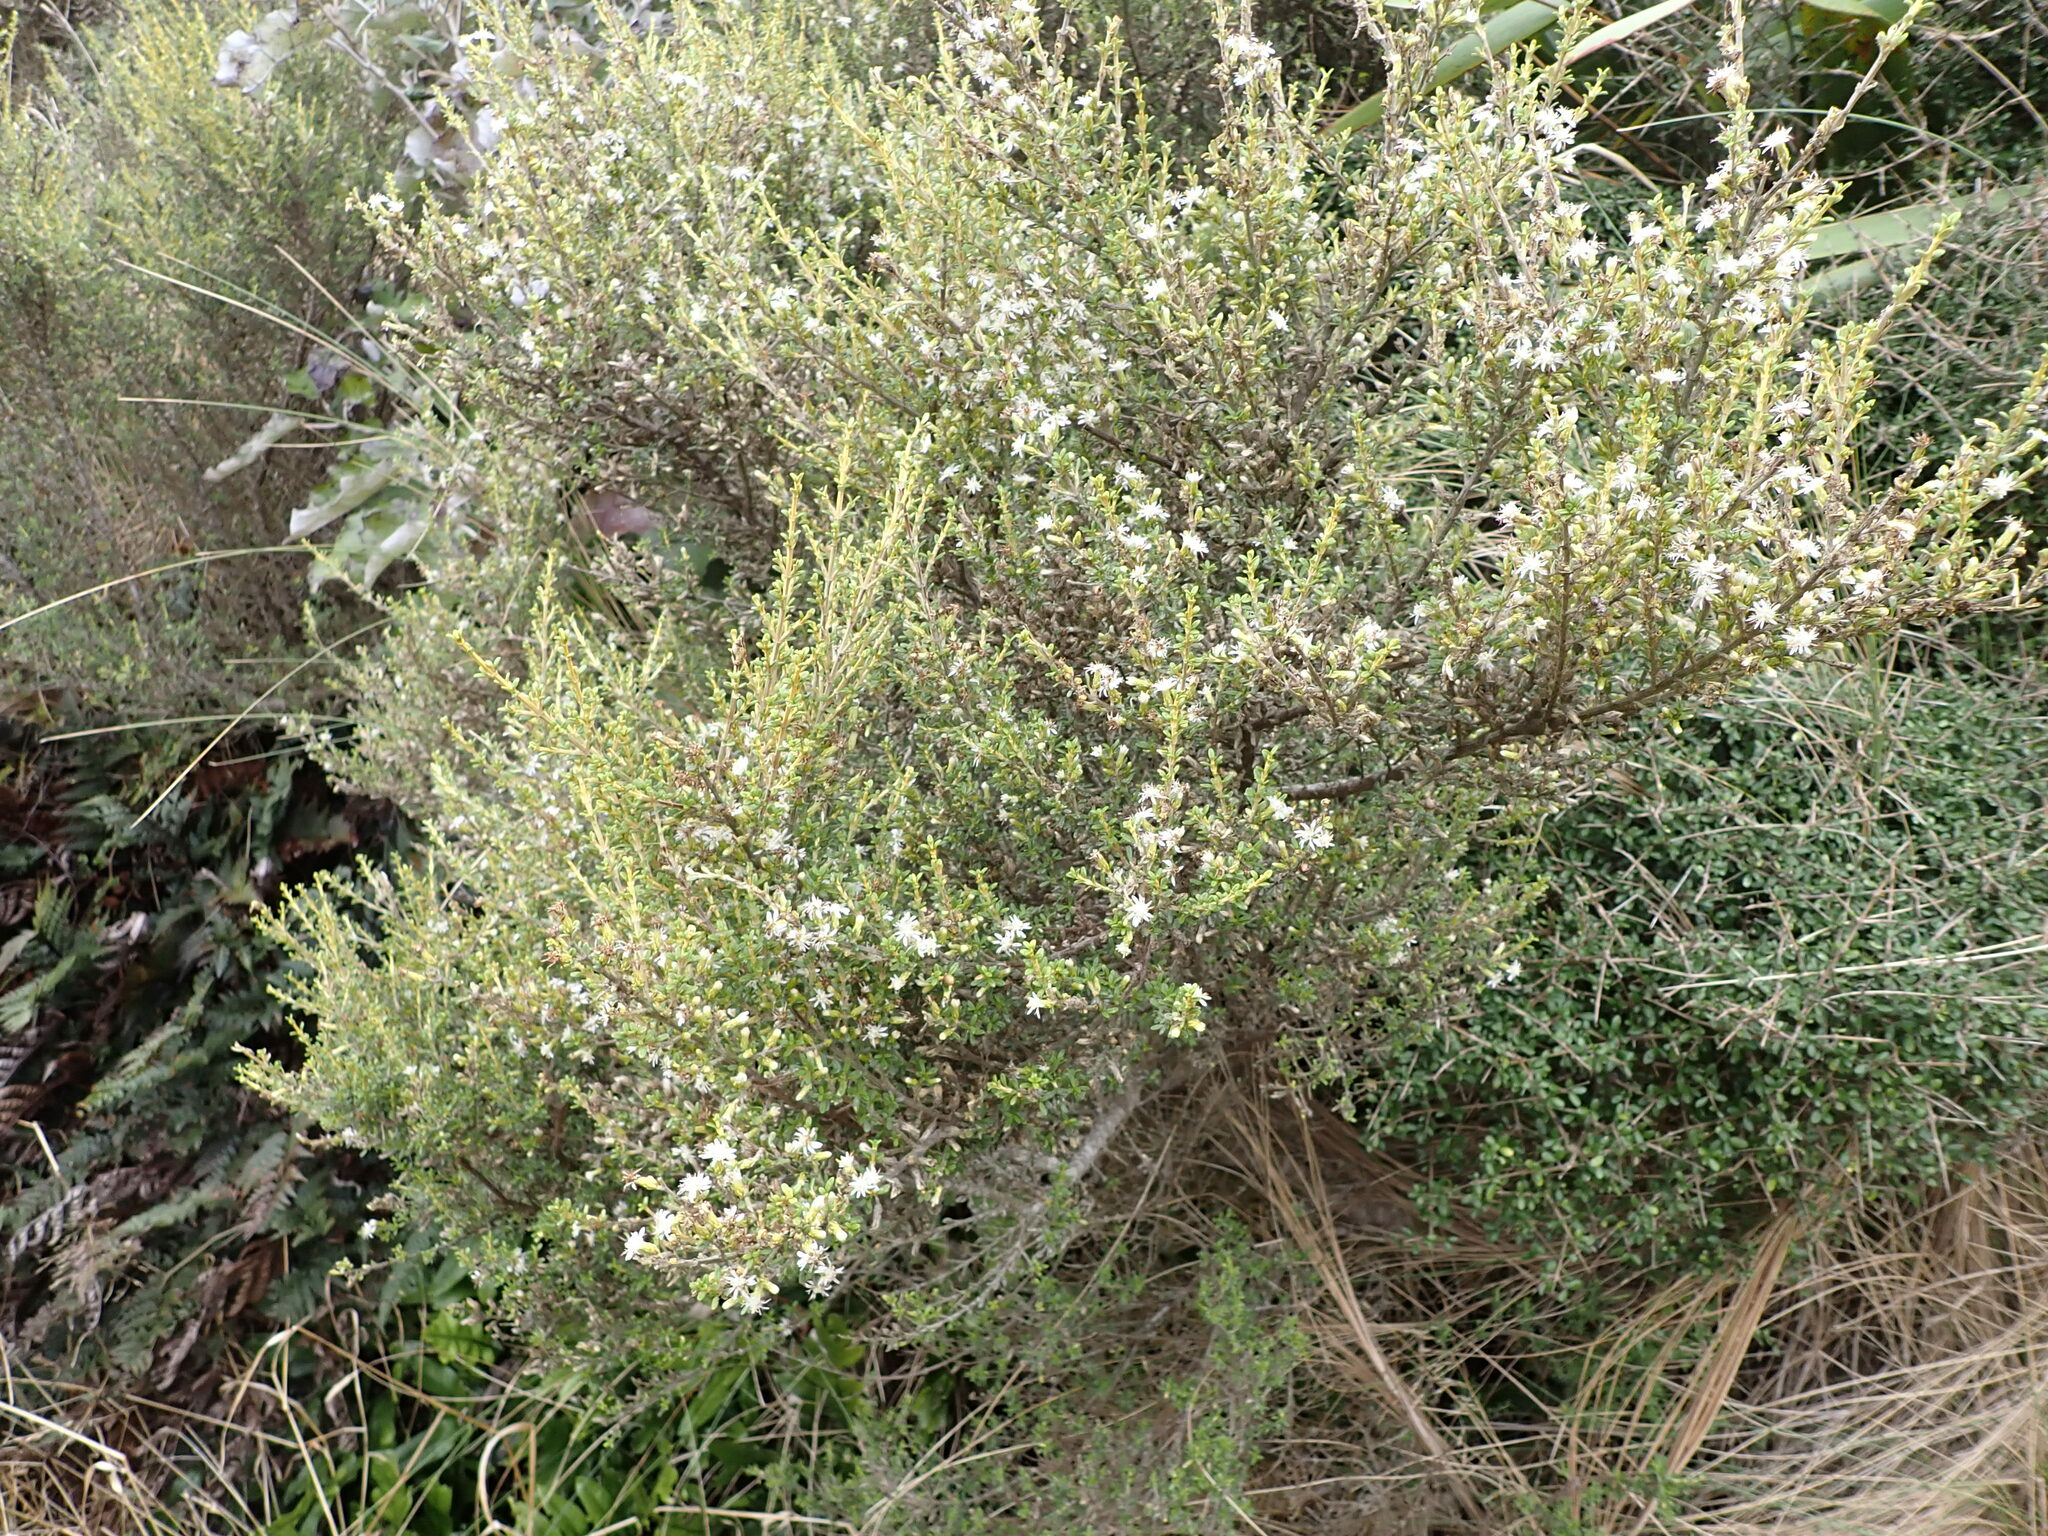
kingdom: Plantae
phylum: Tracheophyta
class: Magnoliopsida
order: Asterales
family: Asteraceae
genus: Olearia
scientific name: Olearia solandri
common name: Coastal daisybush
